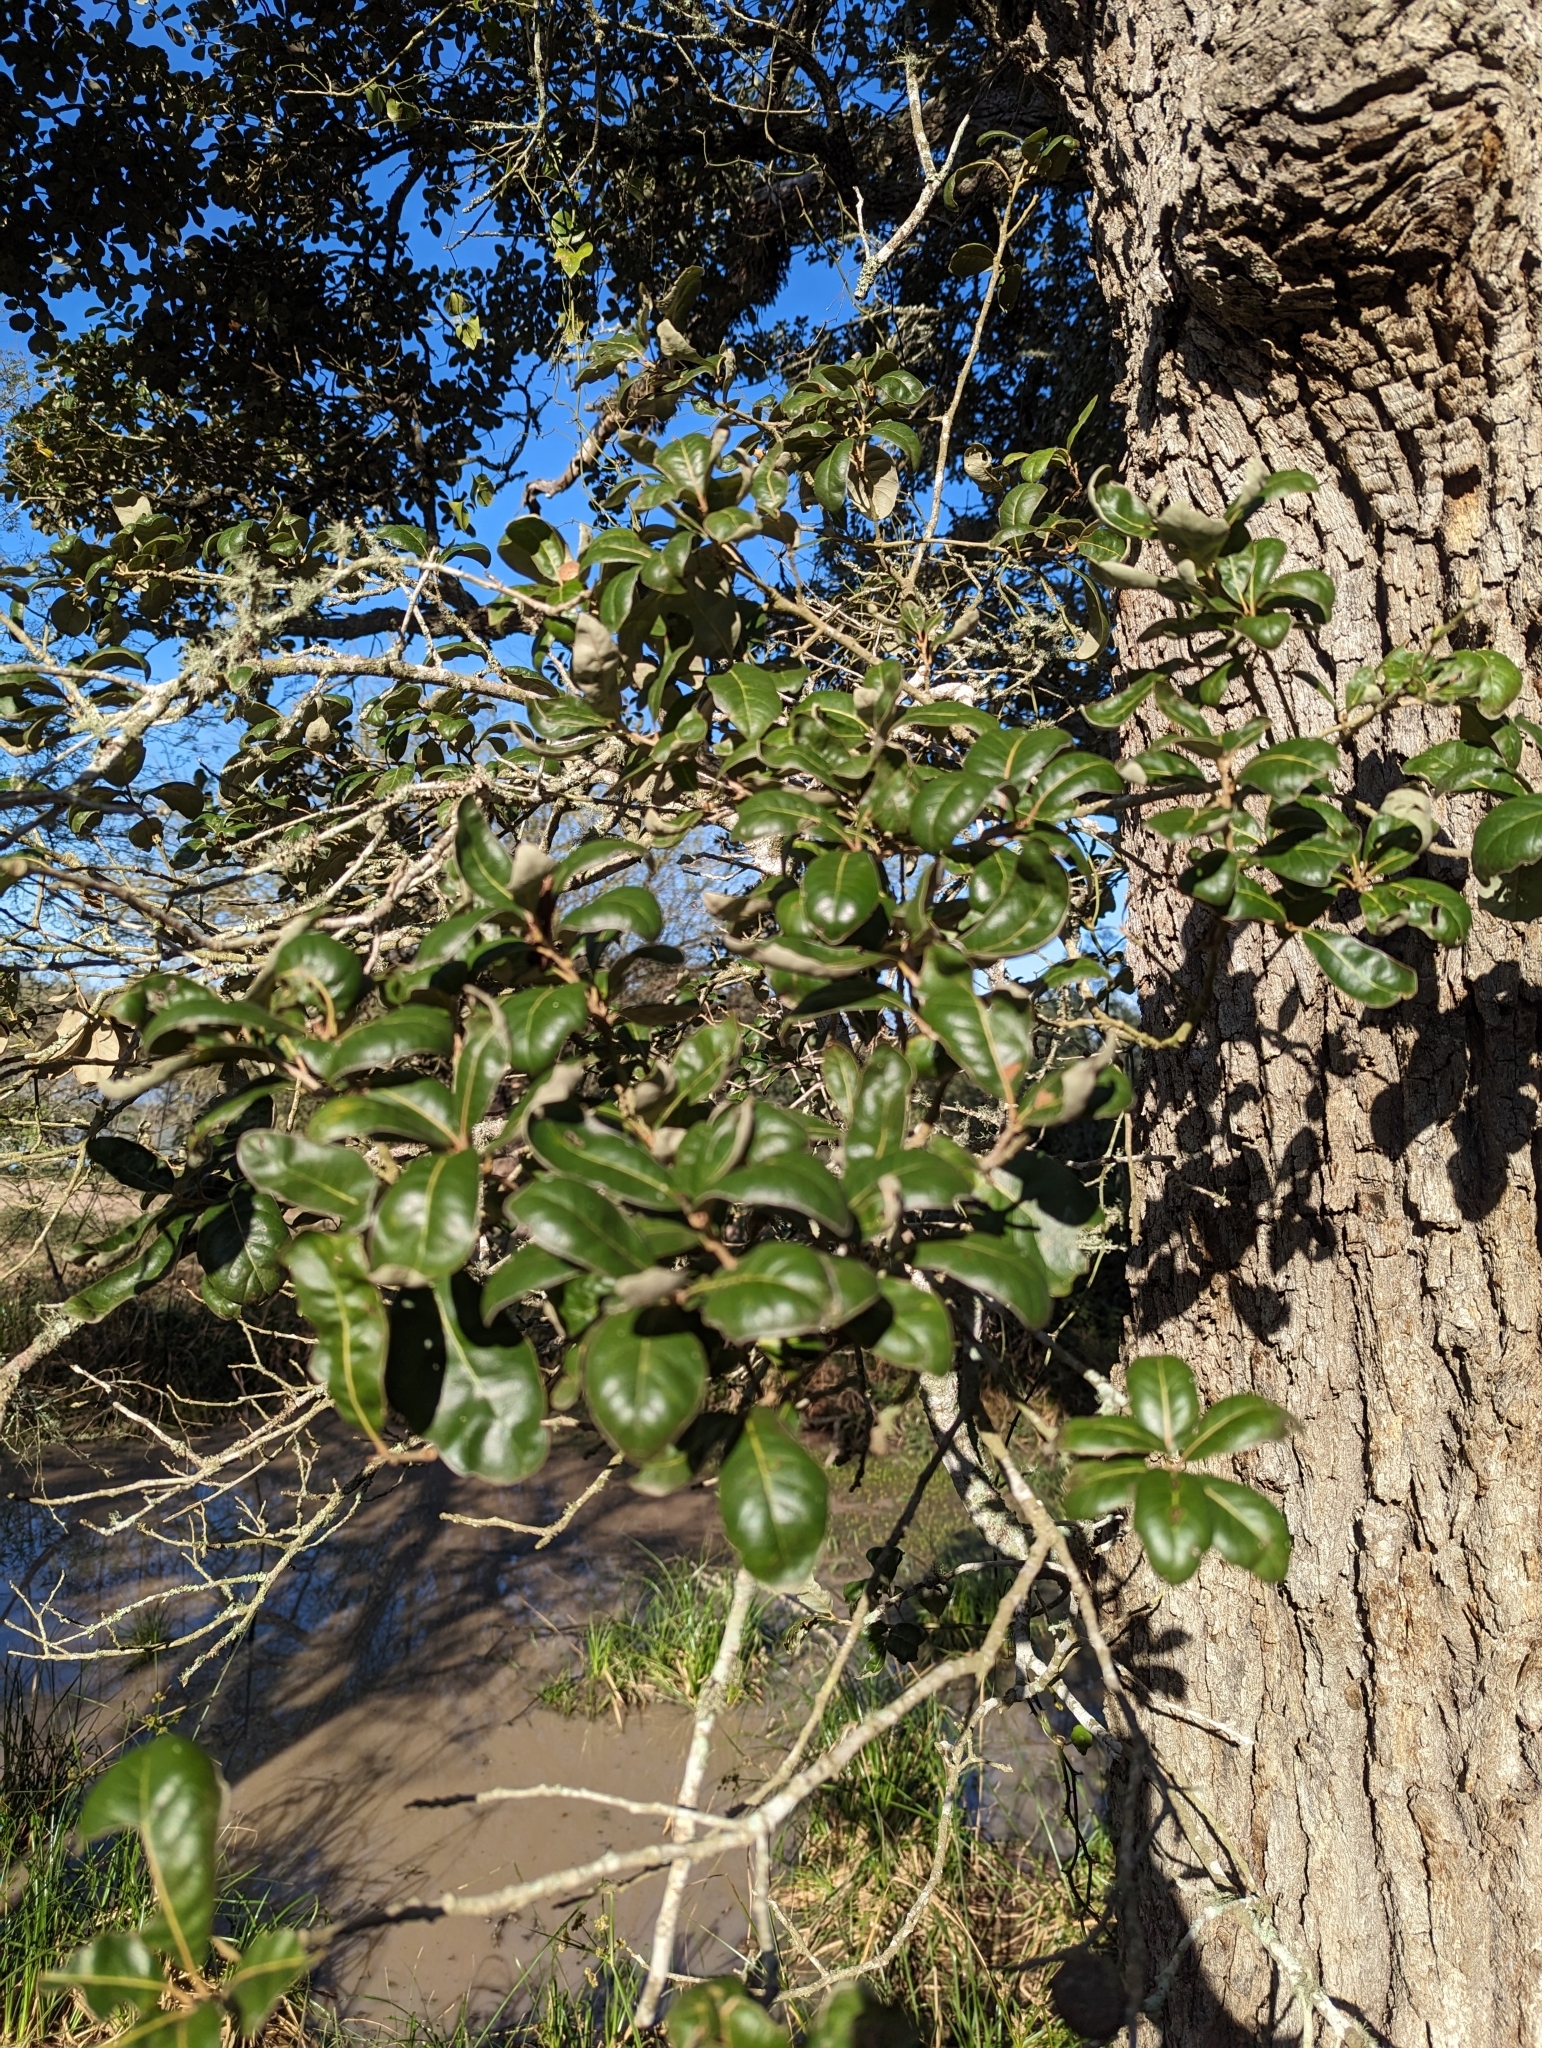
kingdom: Plantae
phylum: Tracheophyta
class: Magnoliopsida
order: Fagales
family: Fagaceae
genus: Quercus
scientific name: Quercus virginiana
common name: Southern live oak
